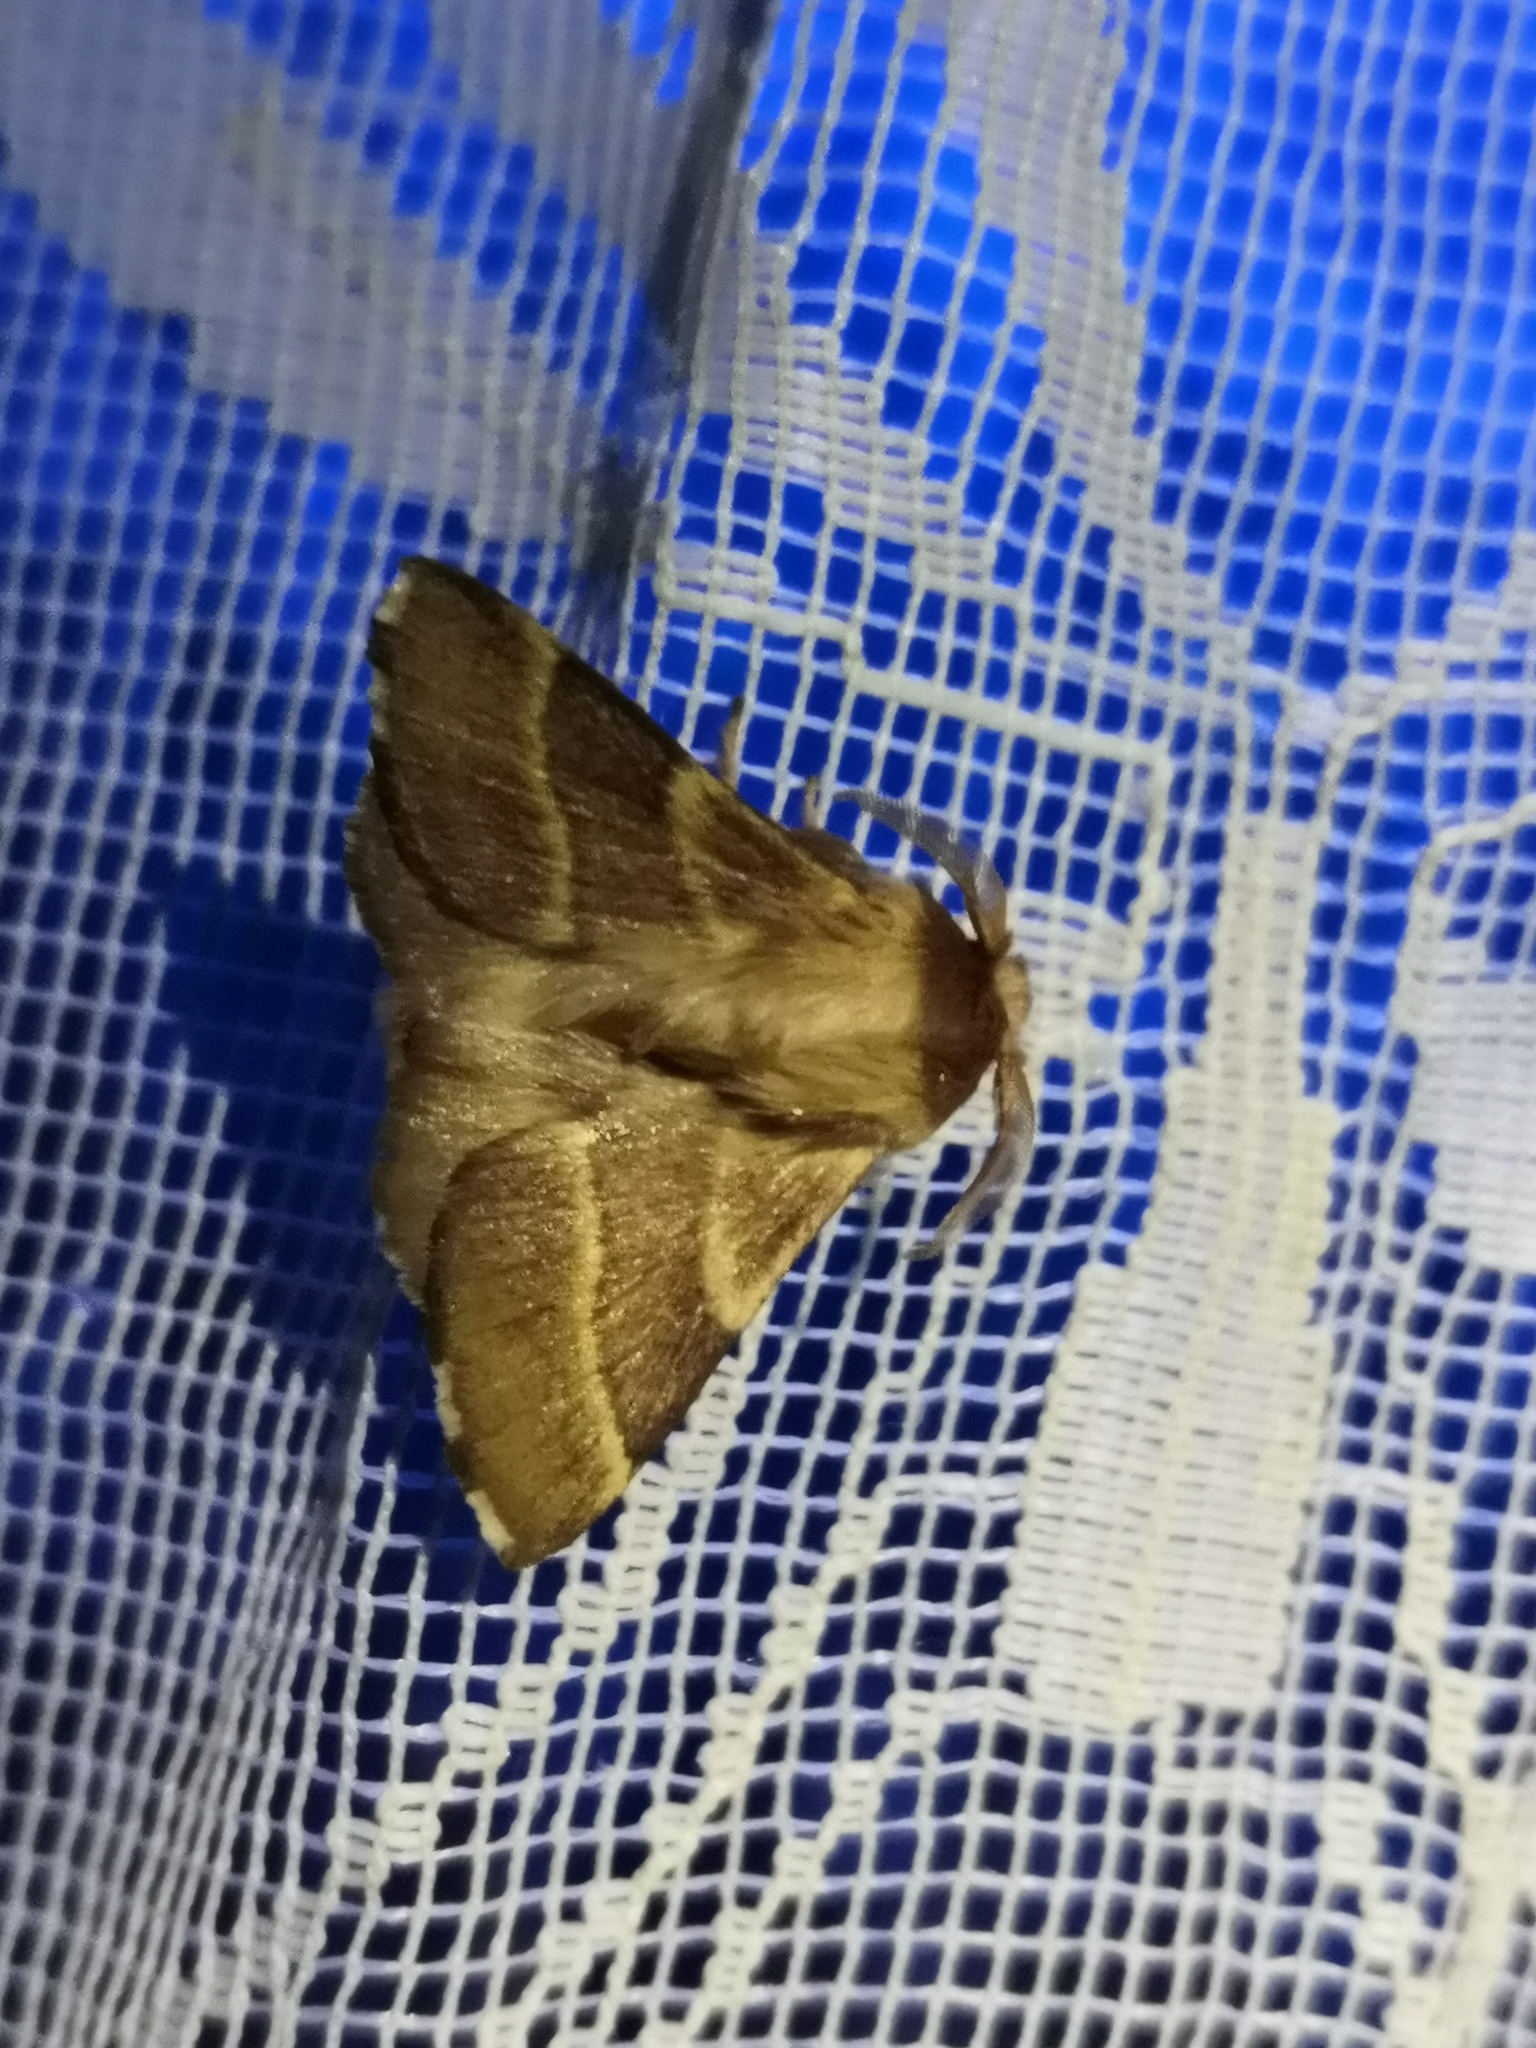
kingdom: Animalia
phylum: Arthropoda
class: Insecta
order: Lepidoptera
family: Lasiocampidae
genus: Malacosoma
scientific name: Malacosoma neustria
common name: The lackey
